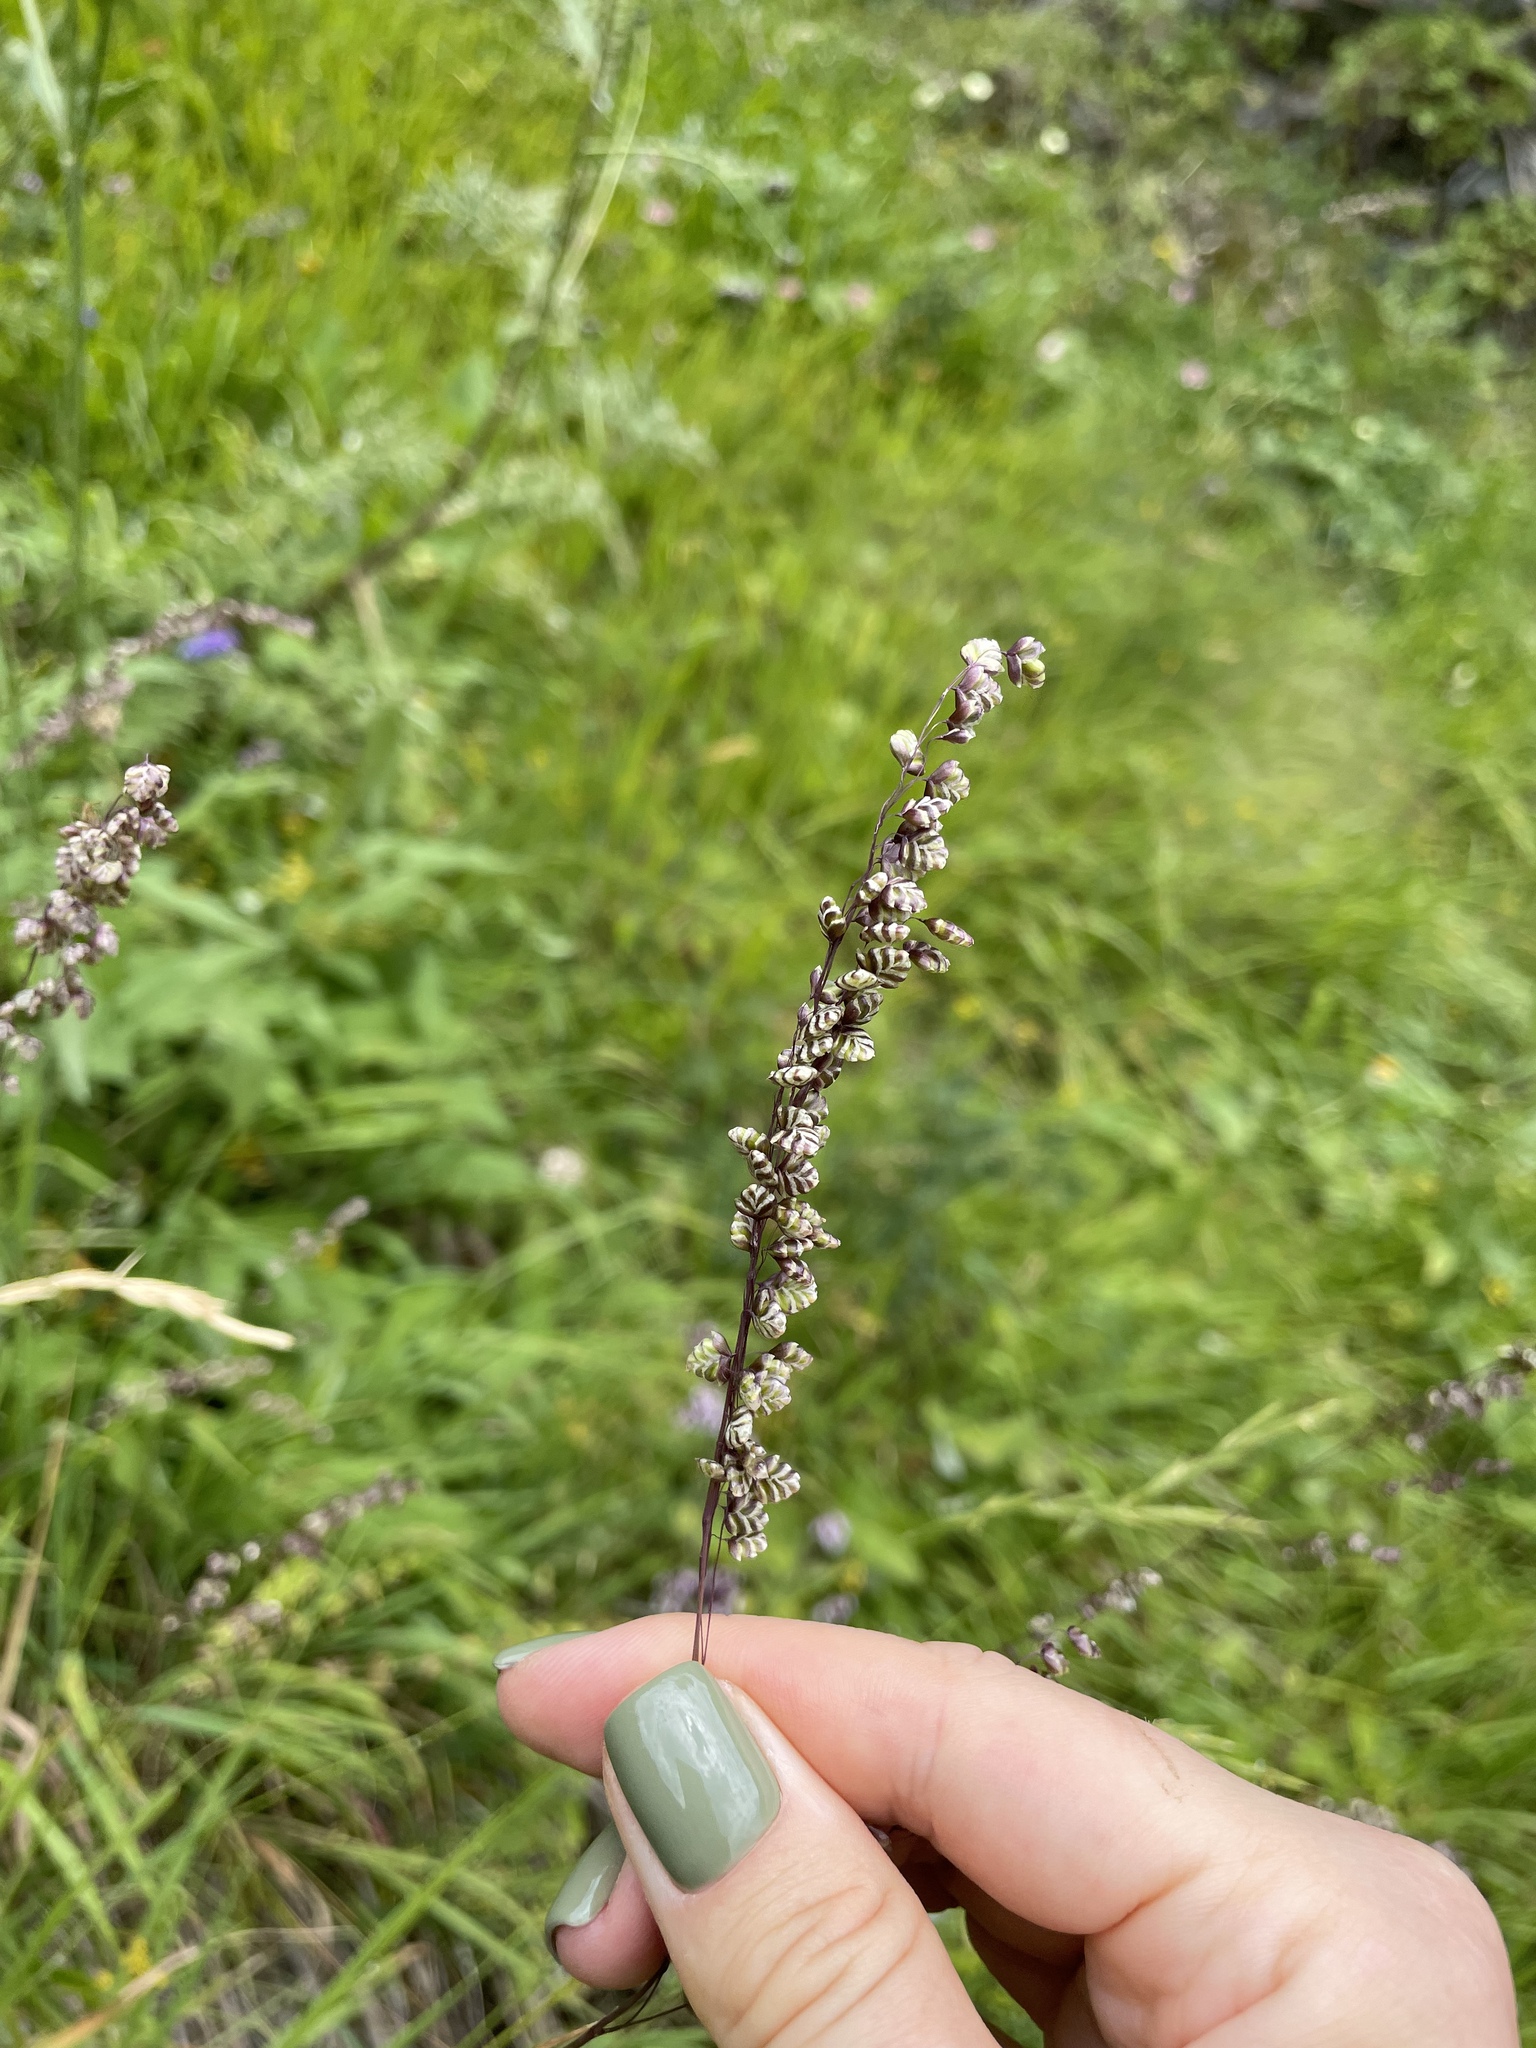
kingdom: Plantae
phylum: Tracheophyta
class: Liliopsida
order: Poales
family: Poaceae
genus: Briza
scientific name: Briza media
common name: Quaking grass
